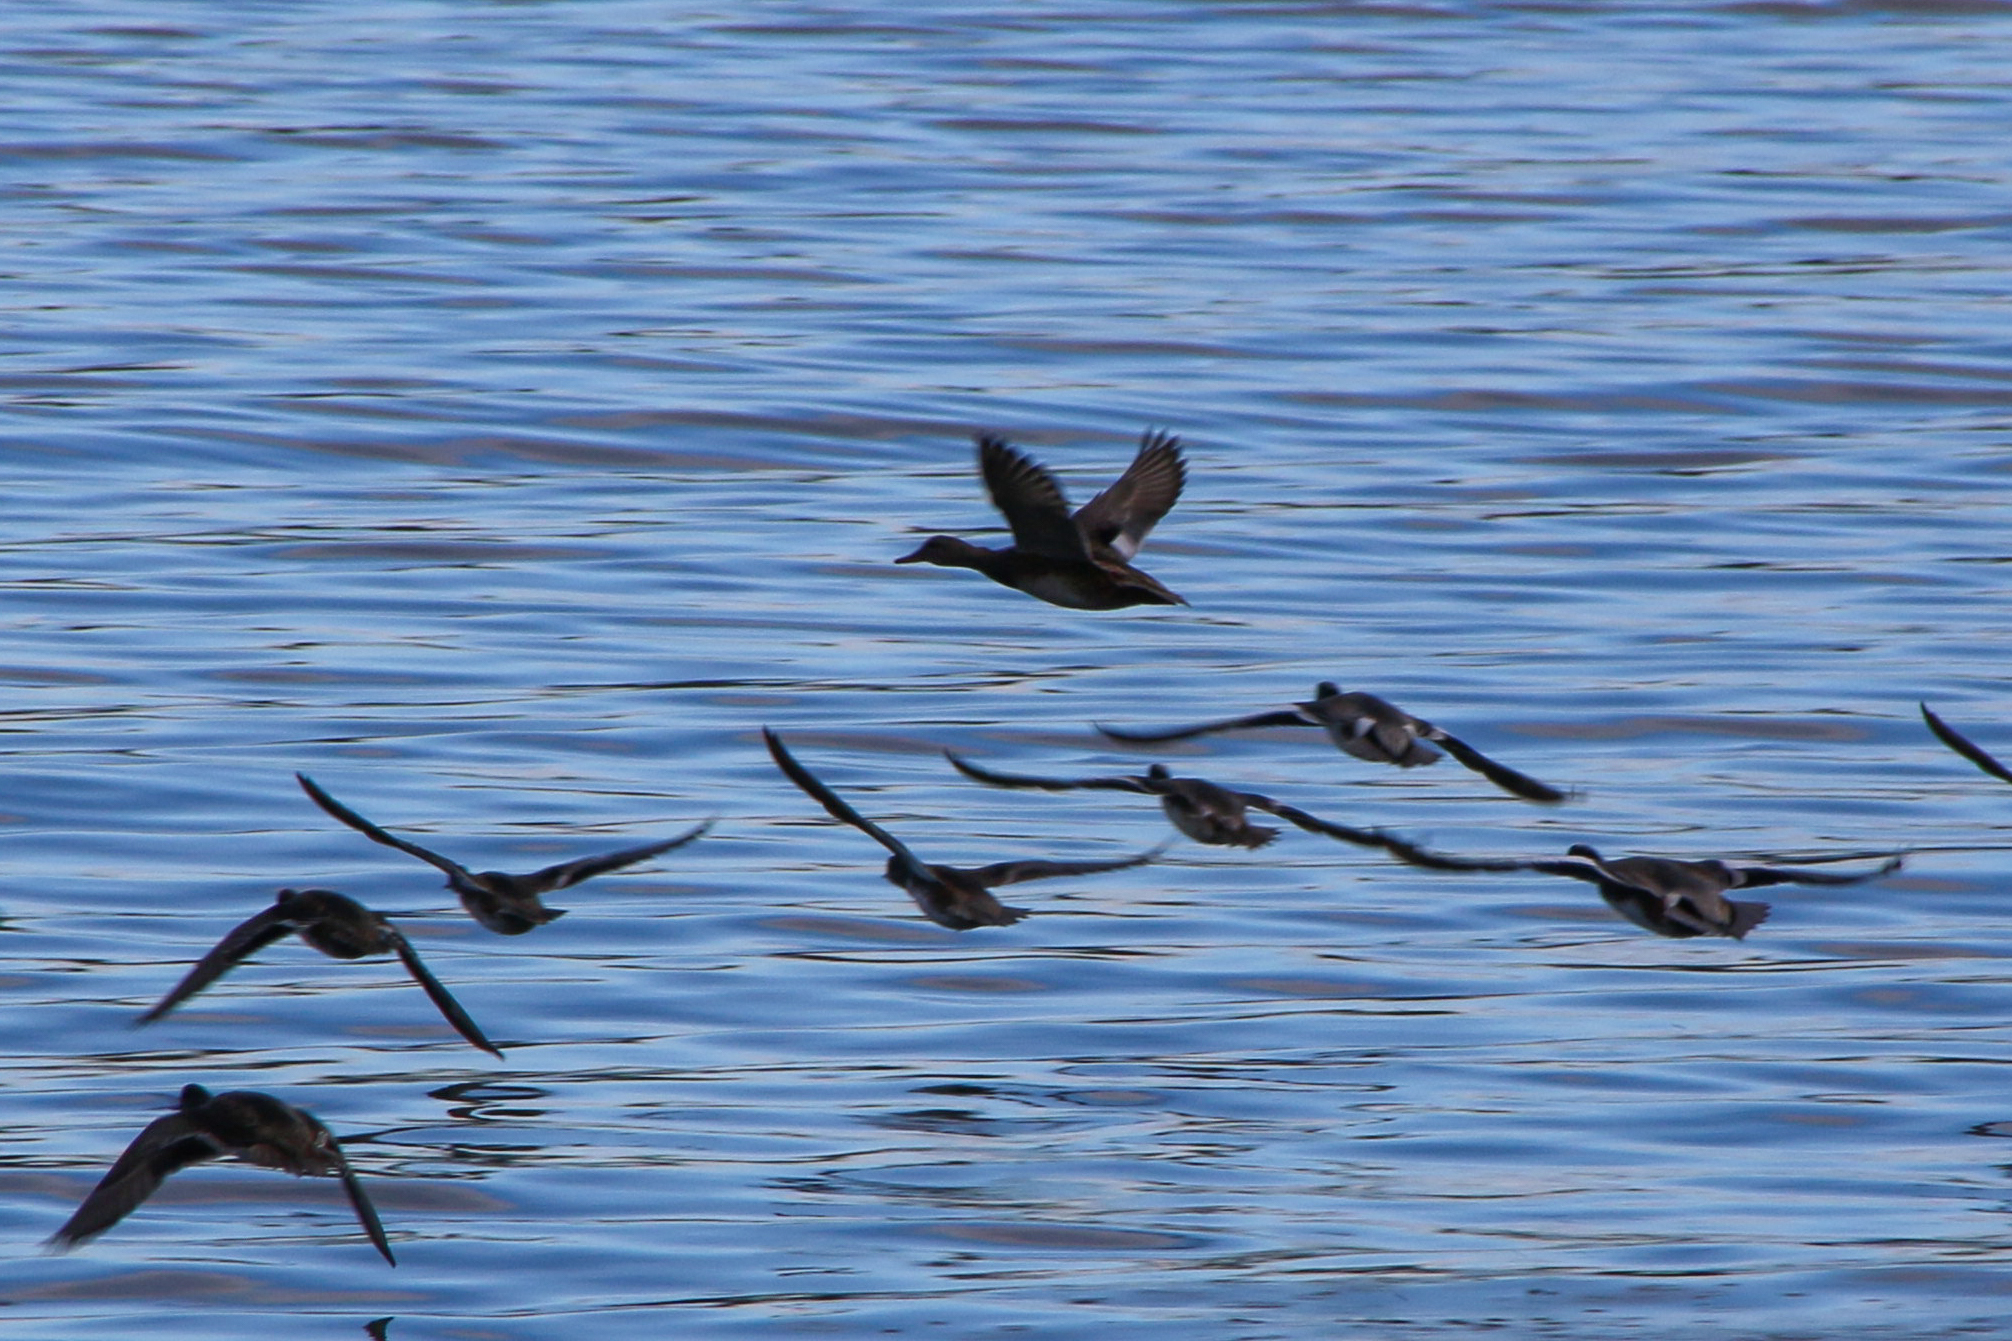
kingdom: Animalia
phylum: Chordata
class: Aves
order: Anseriformes
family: Anatidae
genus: Mareca
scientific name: Mareca americana
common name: American wigeon
